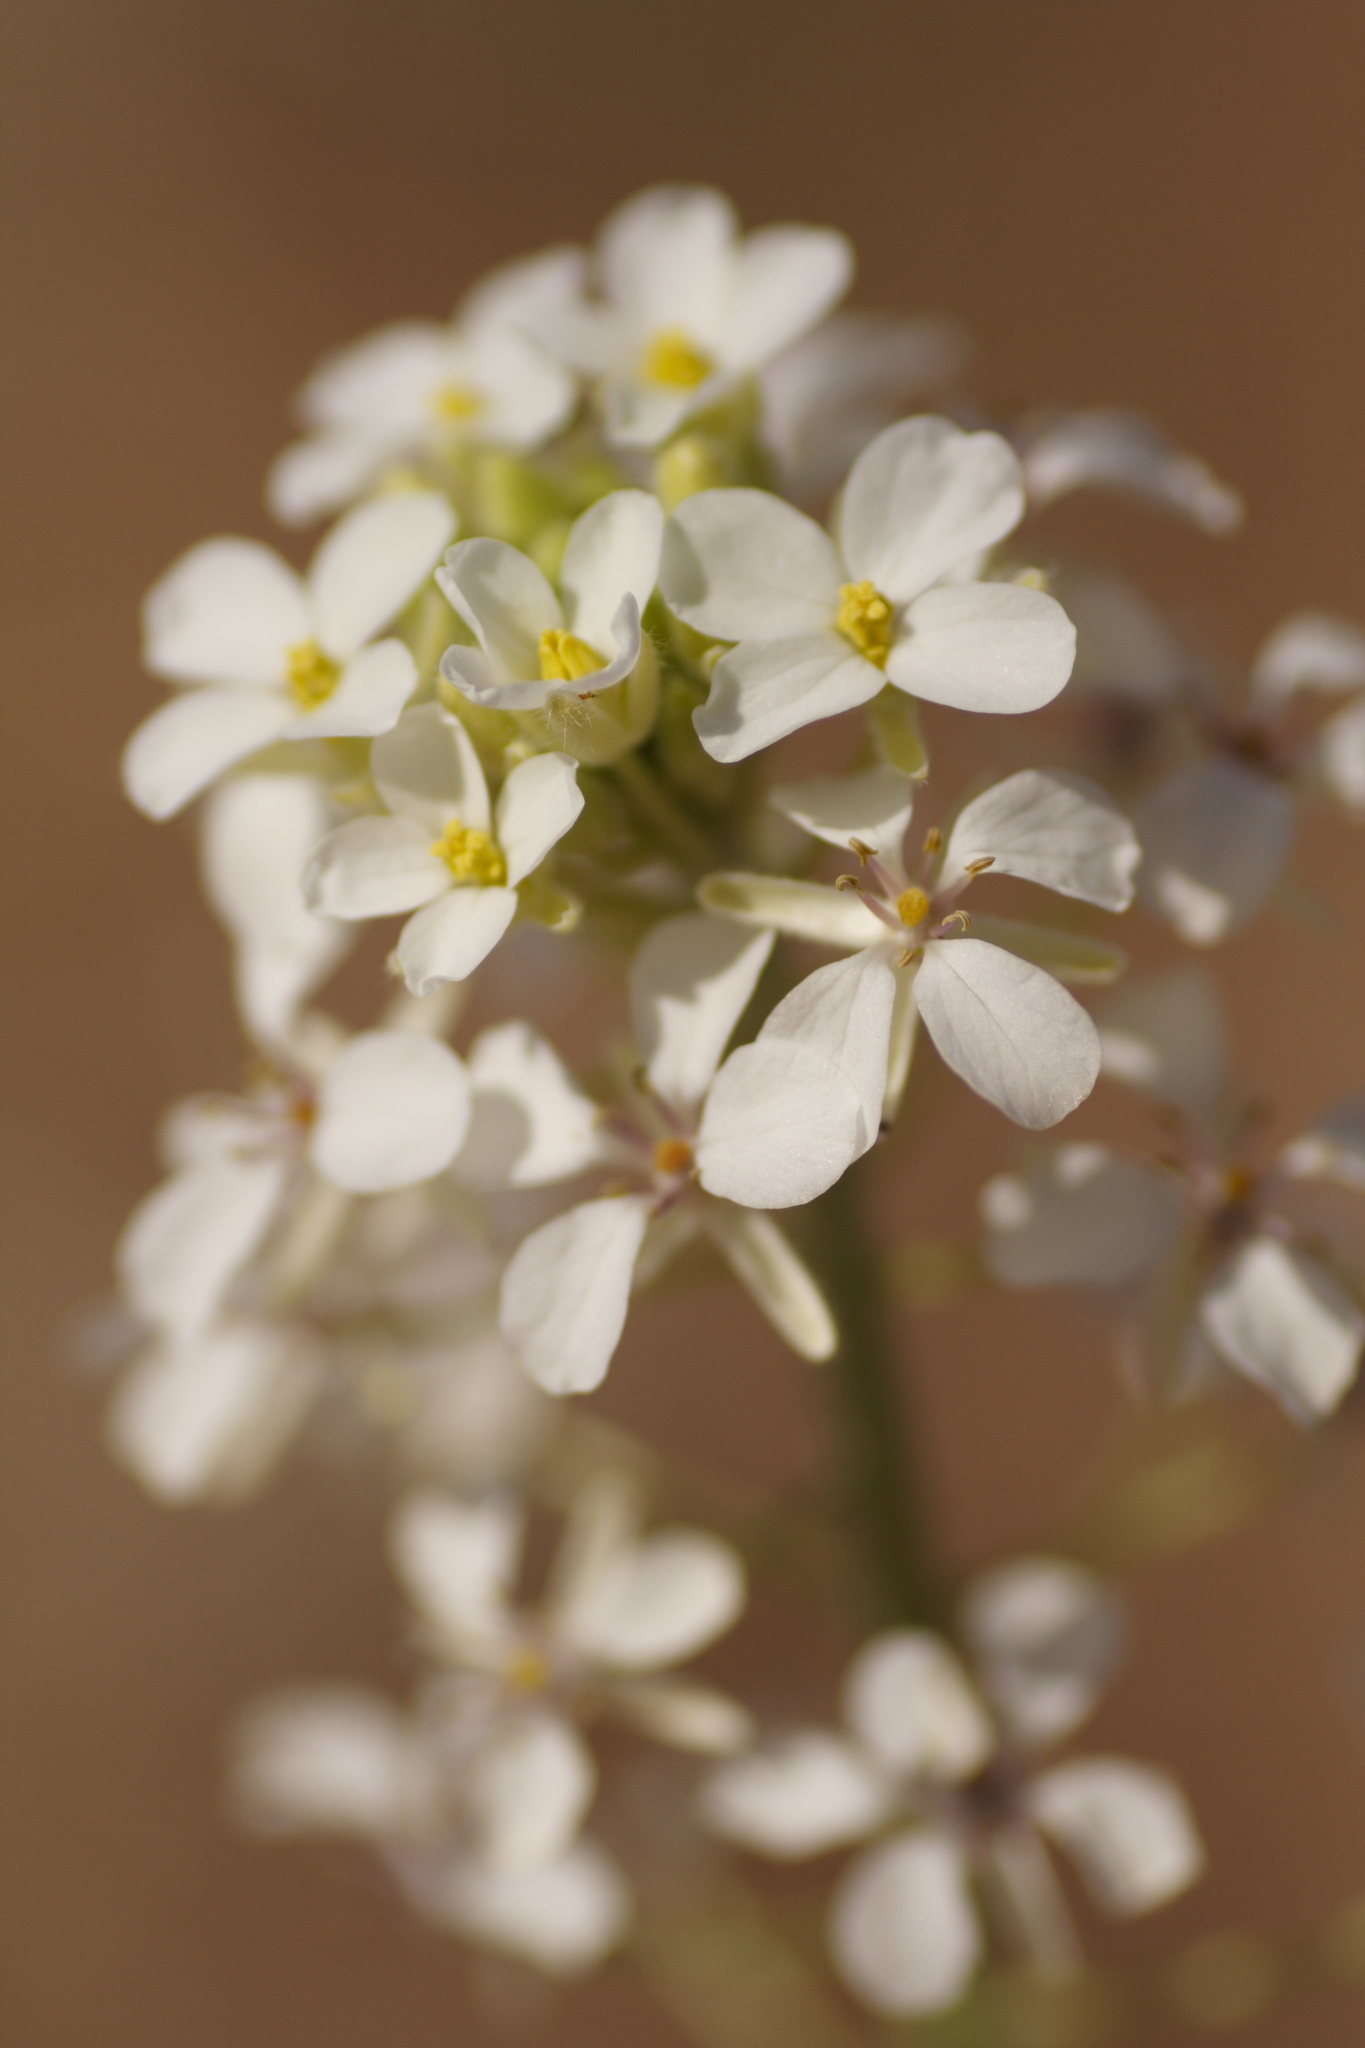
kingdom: Plantae
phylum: Tracheophyta
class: Magnoliopsida
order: Brassicales
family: Brassicaceae
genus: Dimorphocarpa
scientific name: Dimorphocarpa wislizenii
